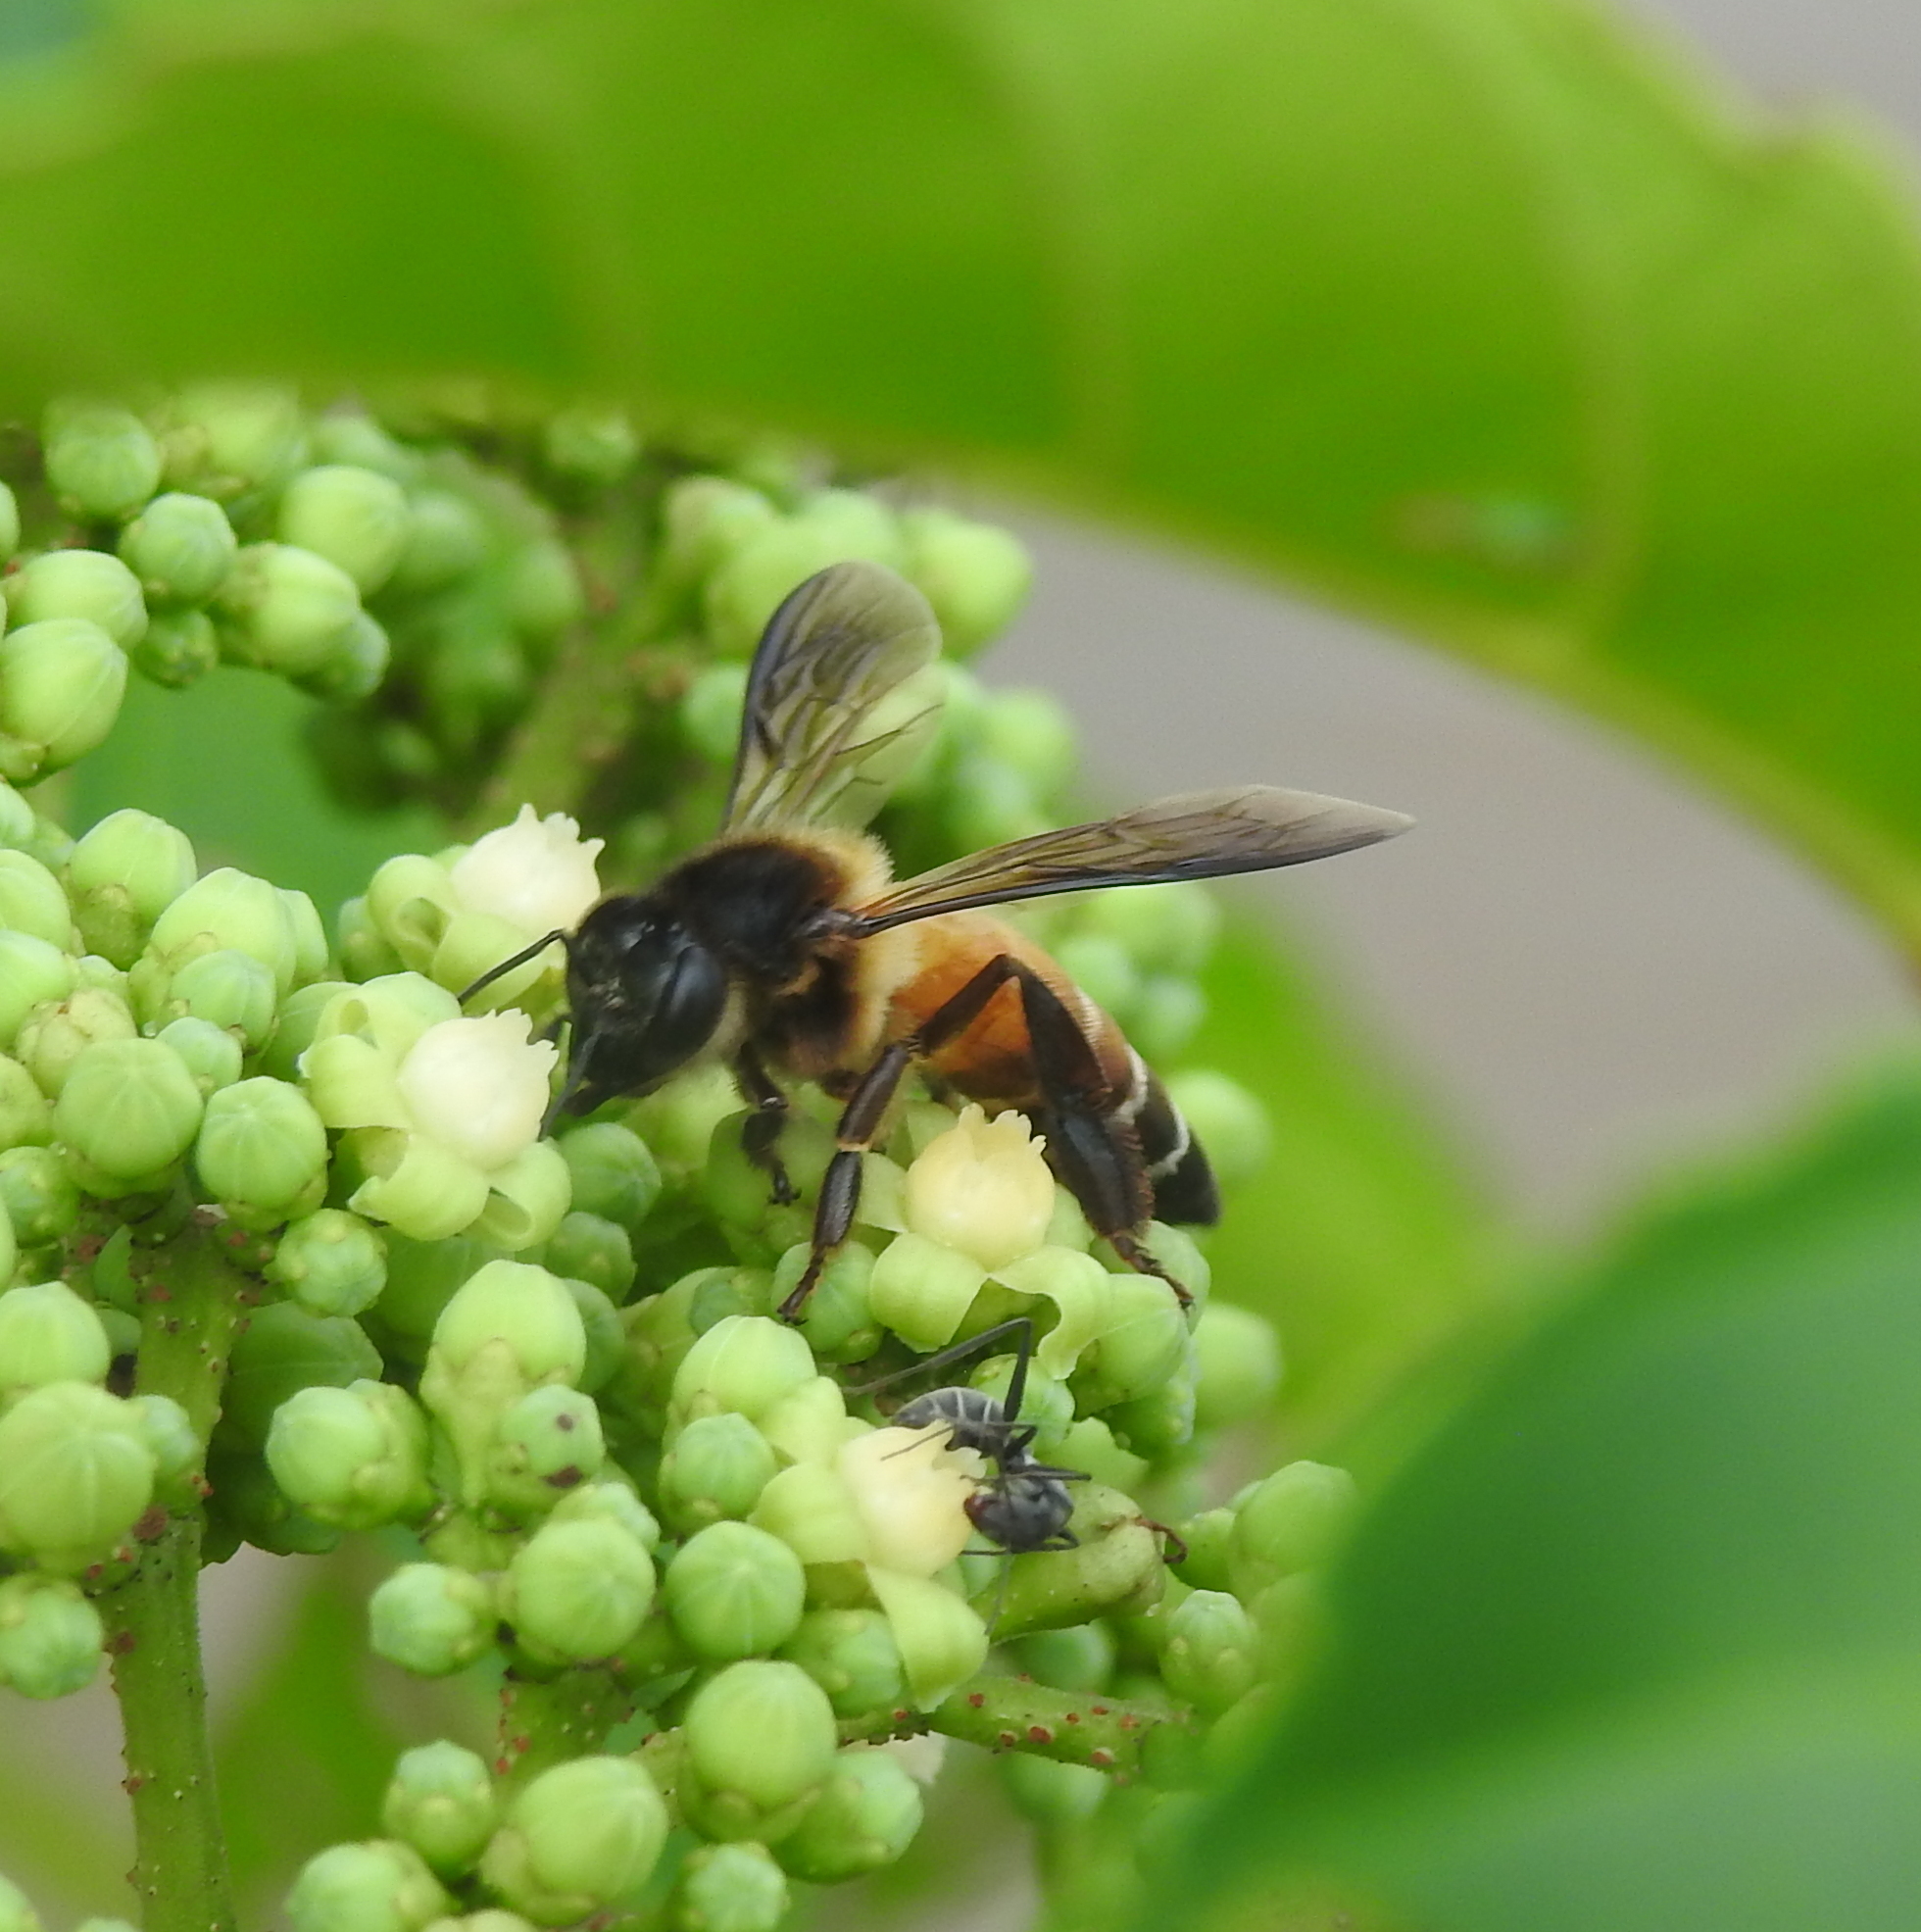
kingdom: Animalia
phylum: Arthropoda
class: Insecta
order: Hymenoptera
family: Apidae
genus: Apis
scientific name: Apis dorsata
